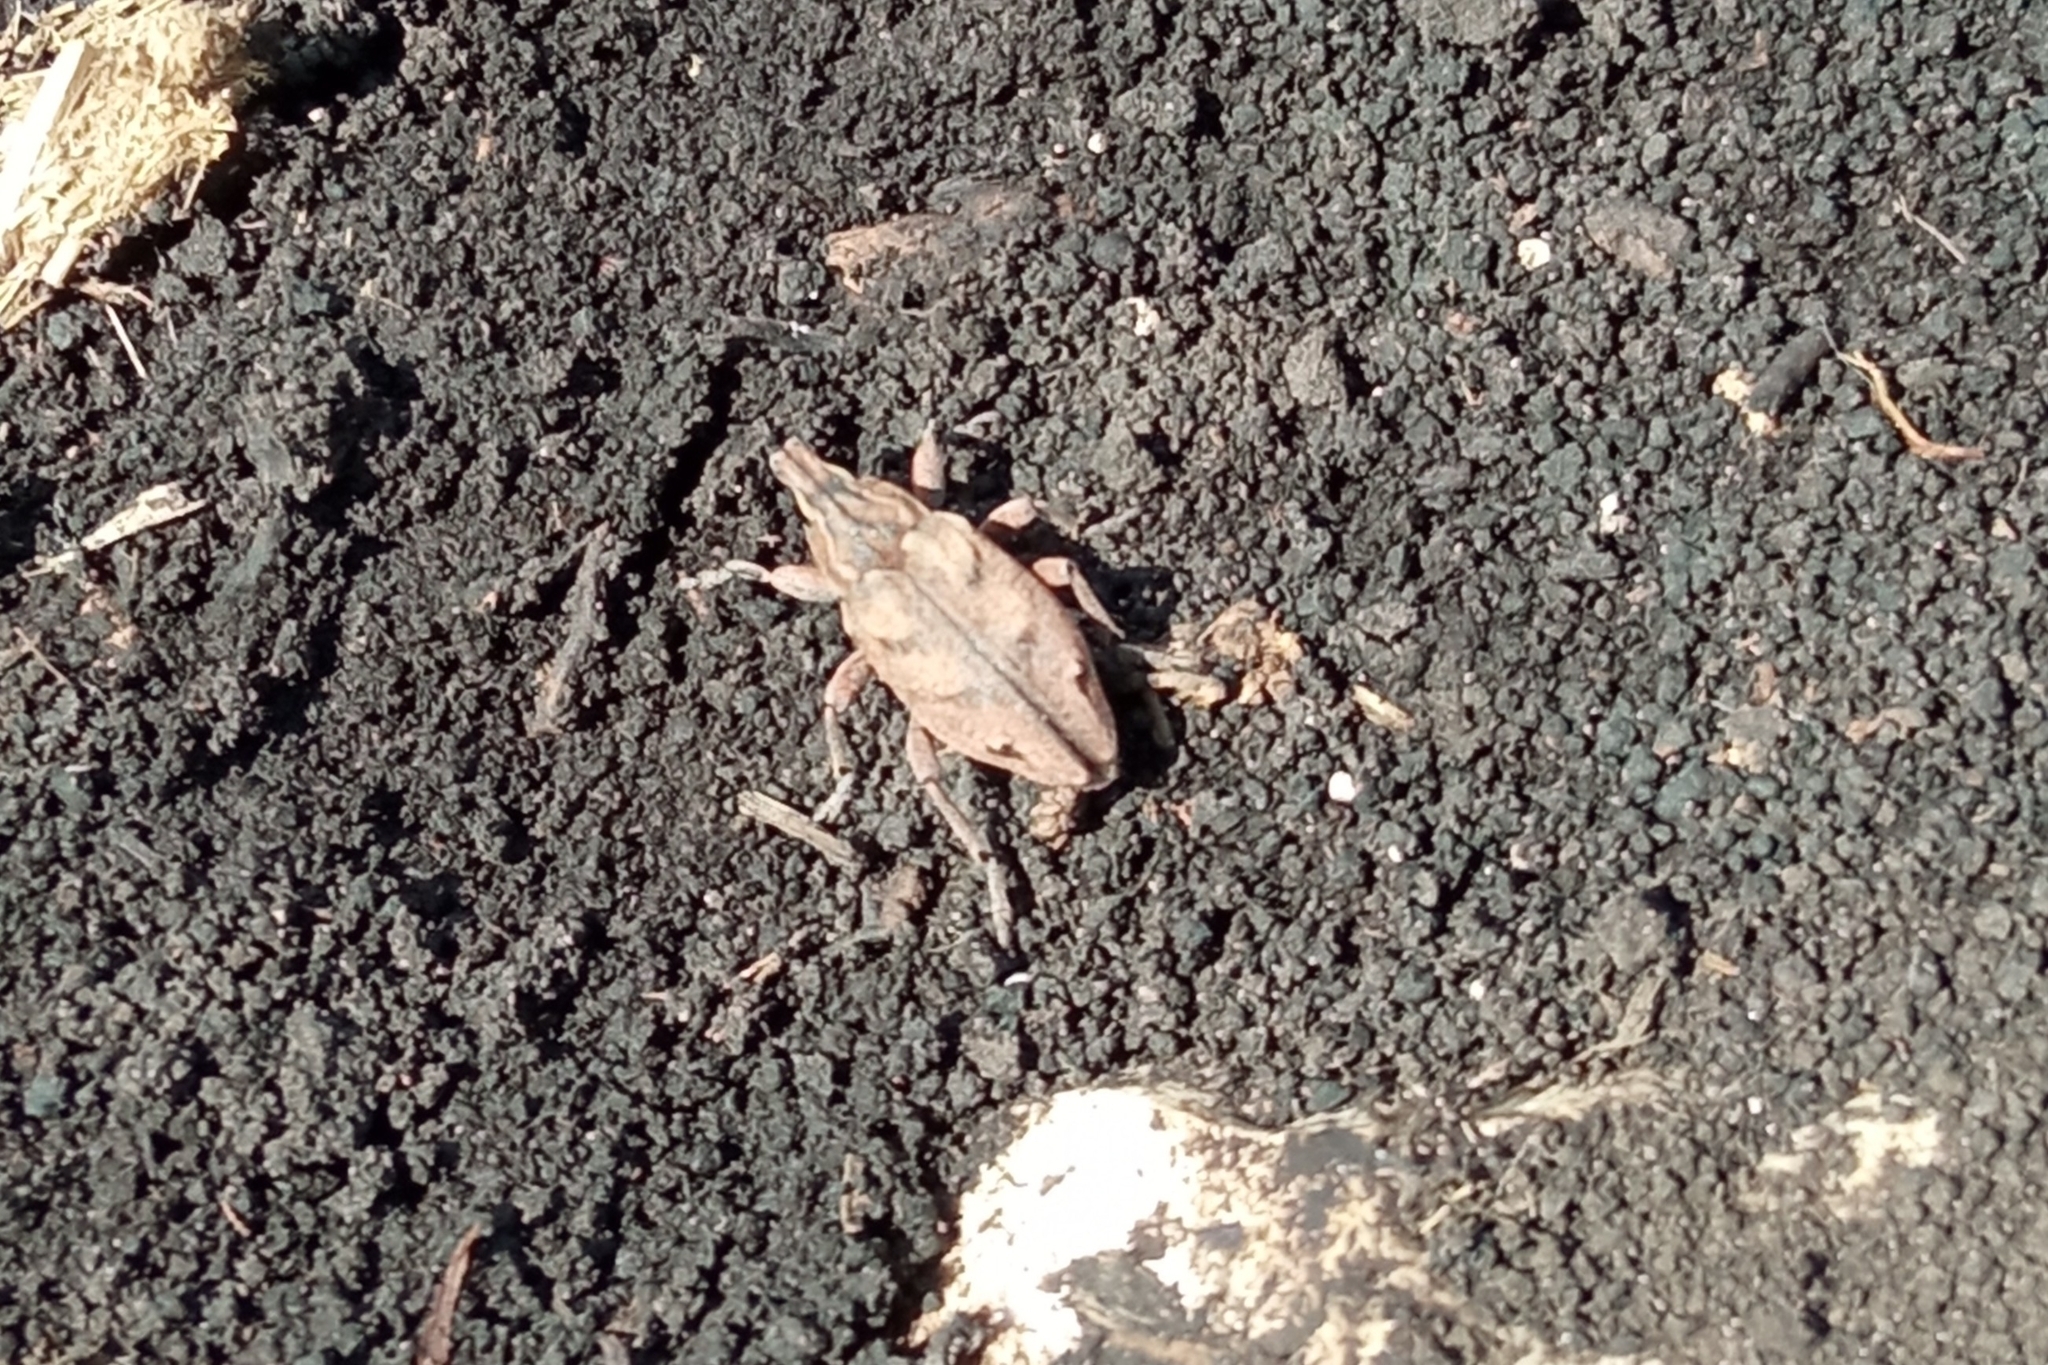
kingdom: Animalia
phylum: Arthropoda
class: Insecta
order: Coleoptera
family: Curculionidae
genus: Cleonus
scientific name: Cleonus microgrammus
